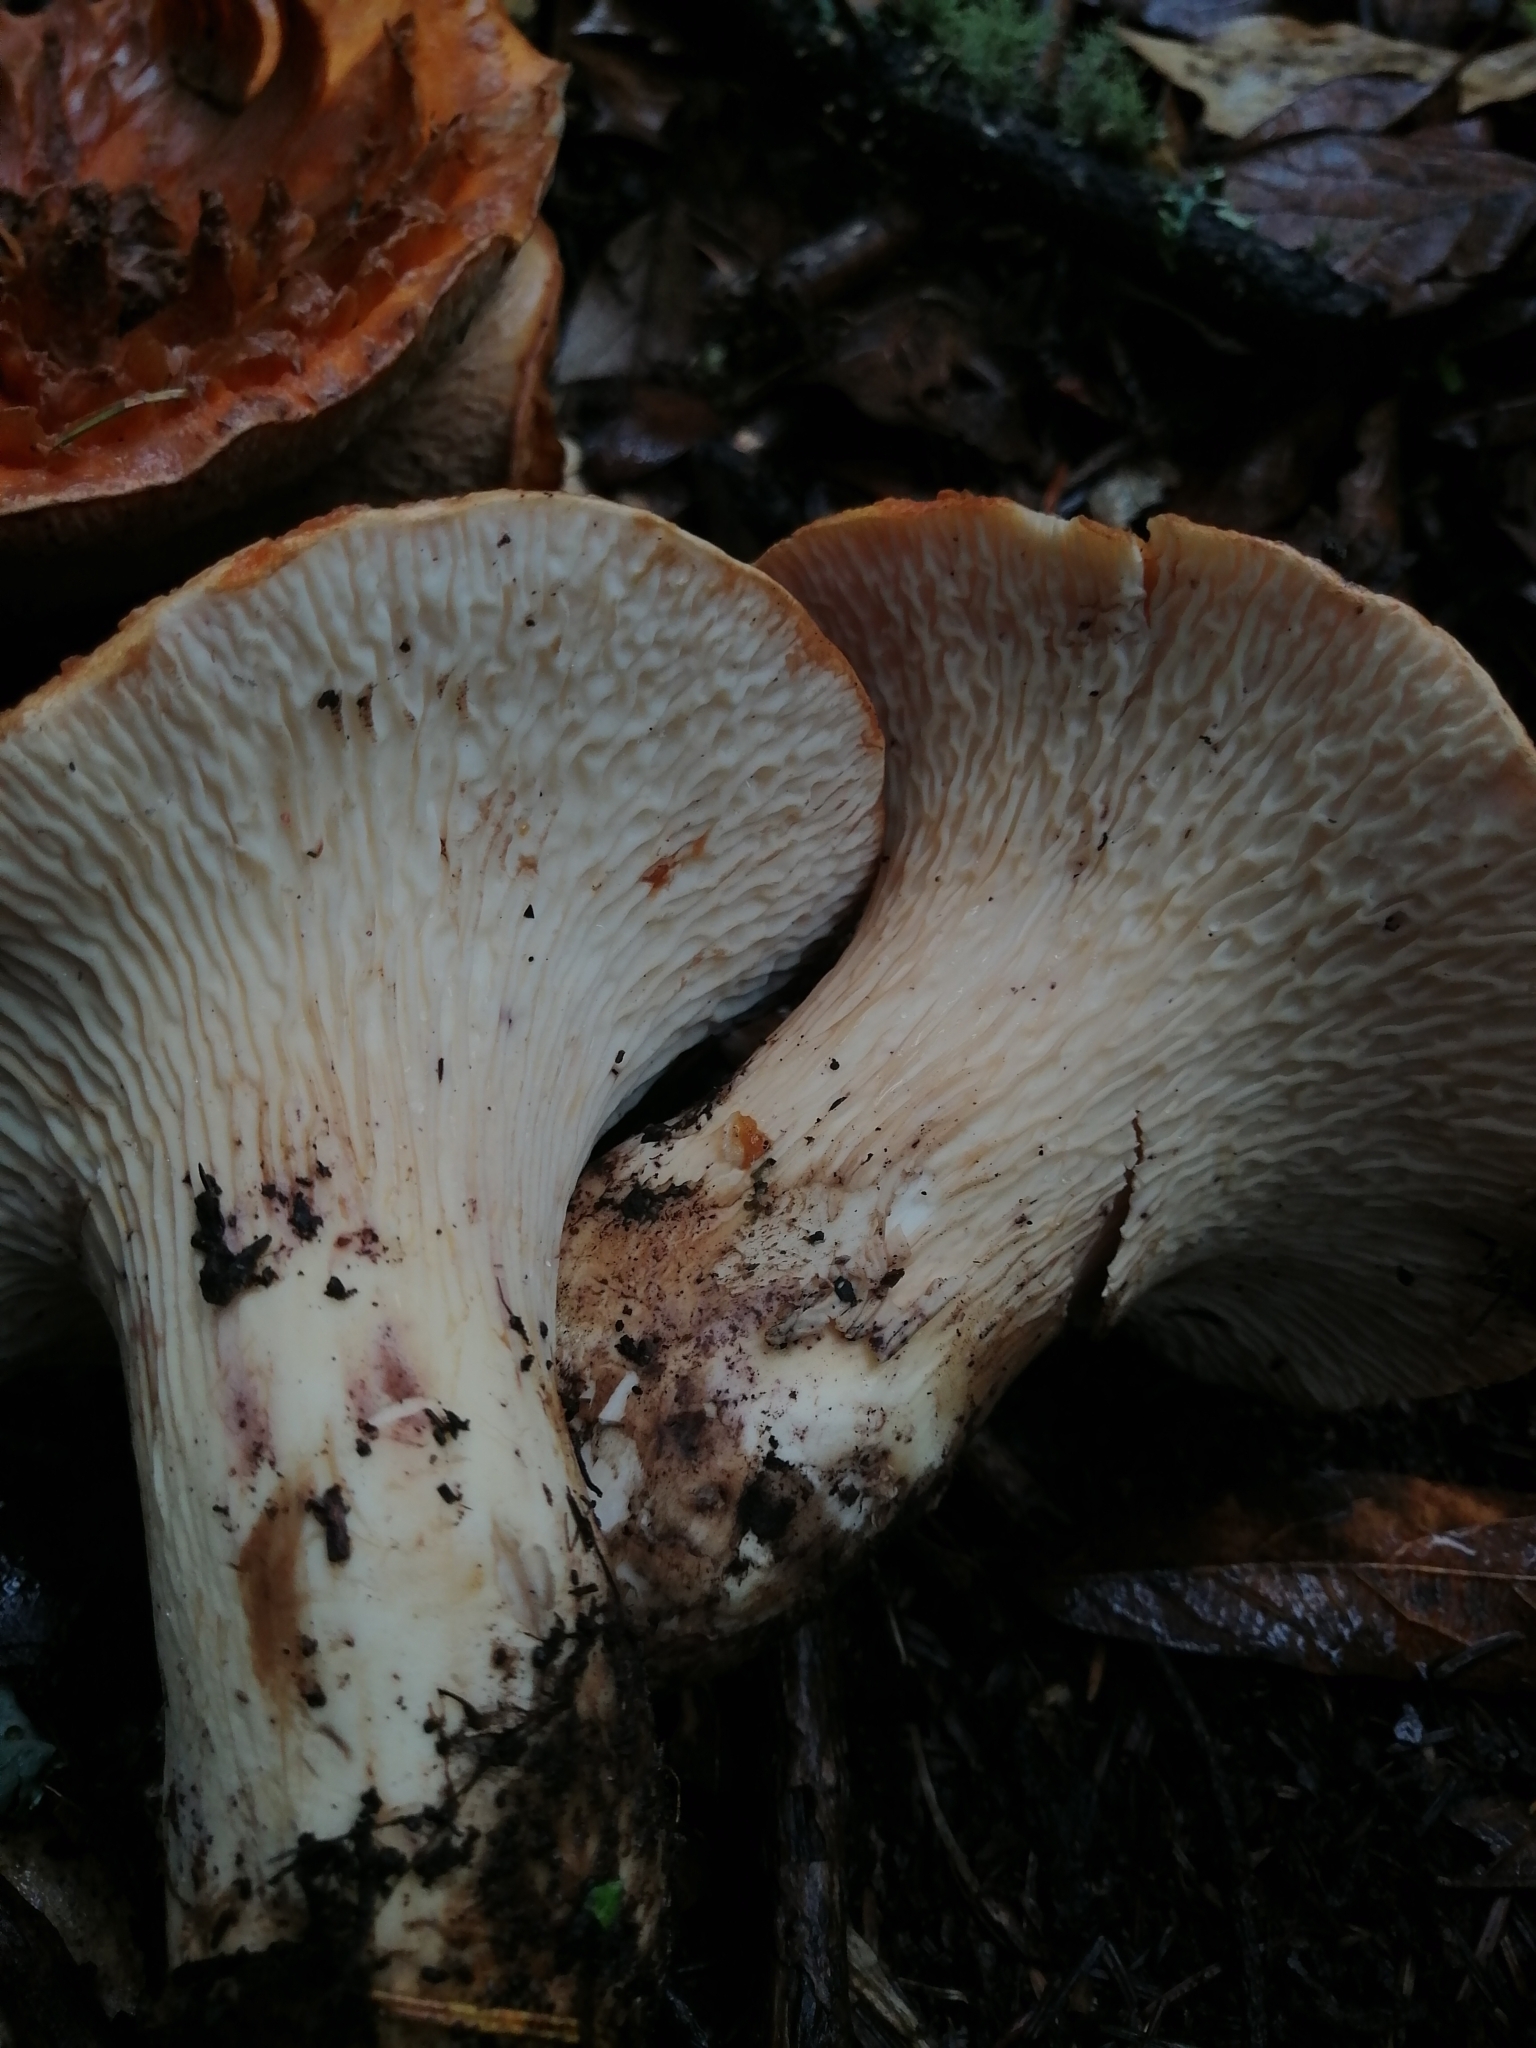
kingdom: Fungi
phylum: Basidiomycota
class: Agaricomycetes
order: Gomphales
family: Gomphaceae
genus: Turbinellus
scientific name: Turbinellus floccosus
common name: Scaly chanterelle
